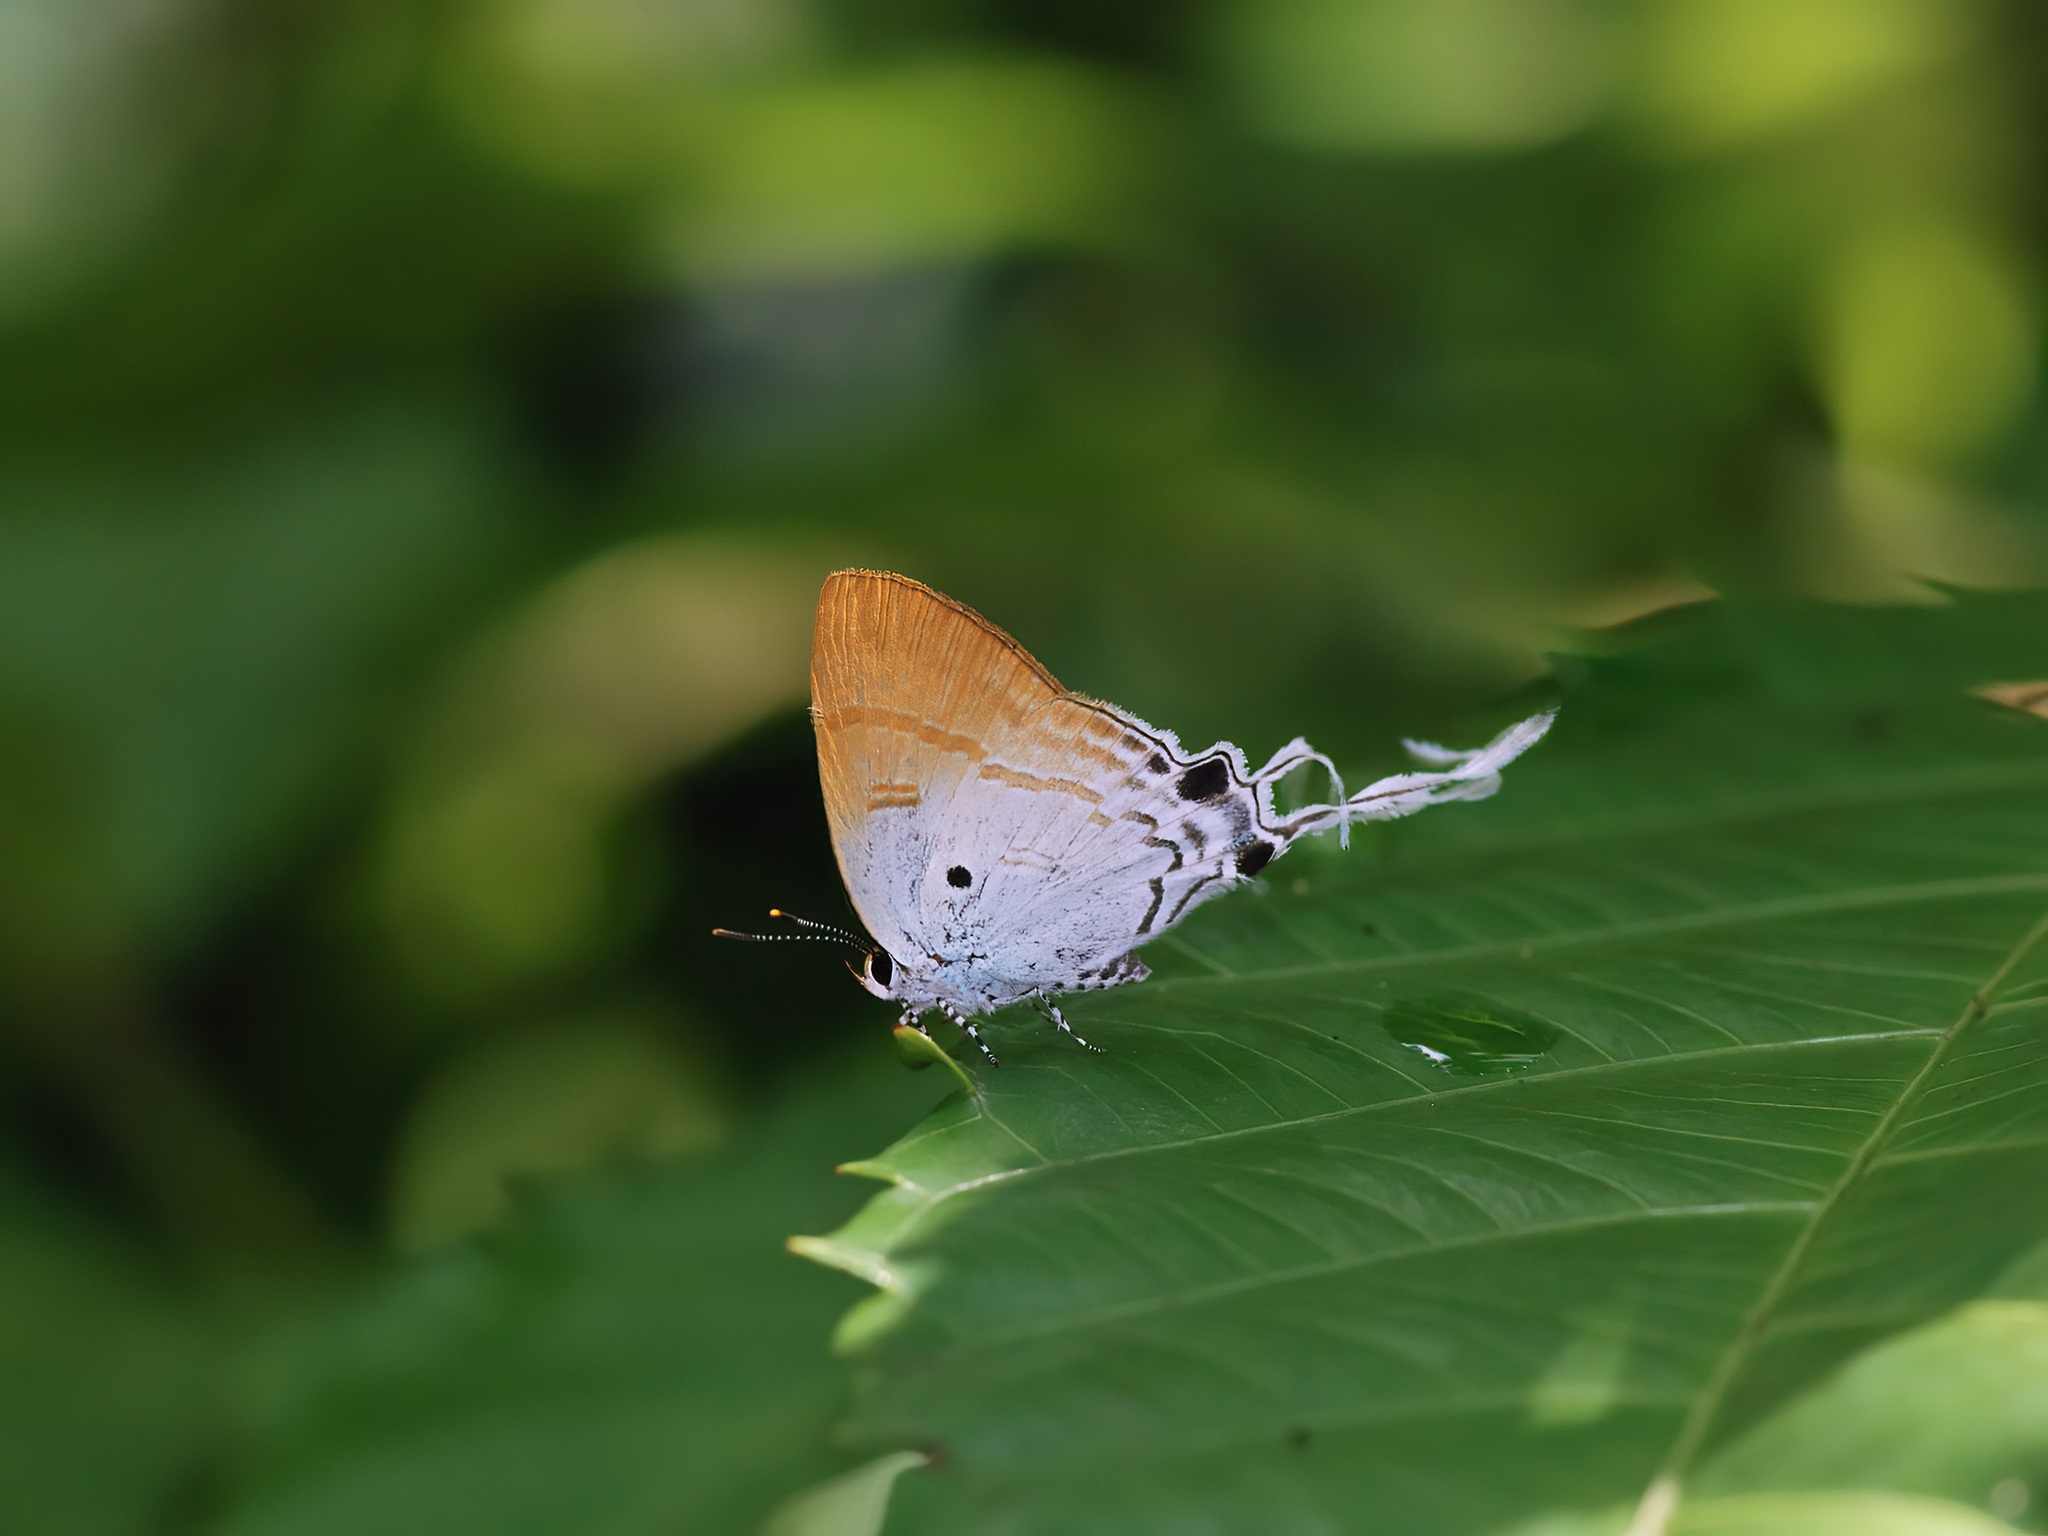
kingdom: Animalia
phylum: Arthropoda
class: Insecta
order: Lepidoptera
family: Lycaenidae
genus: Zeltus
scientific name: Zeltus amasa
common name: Fluffy tit
